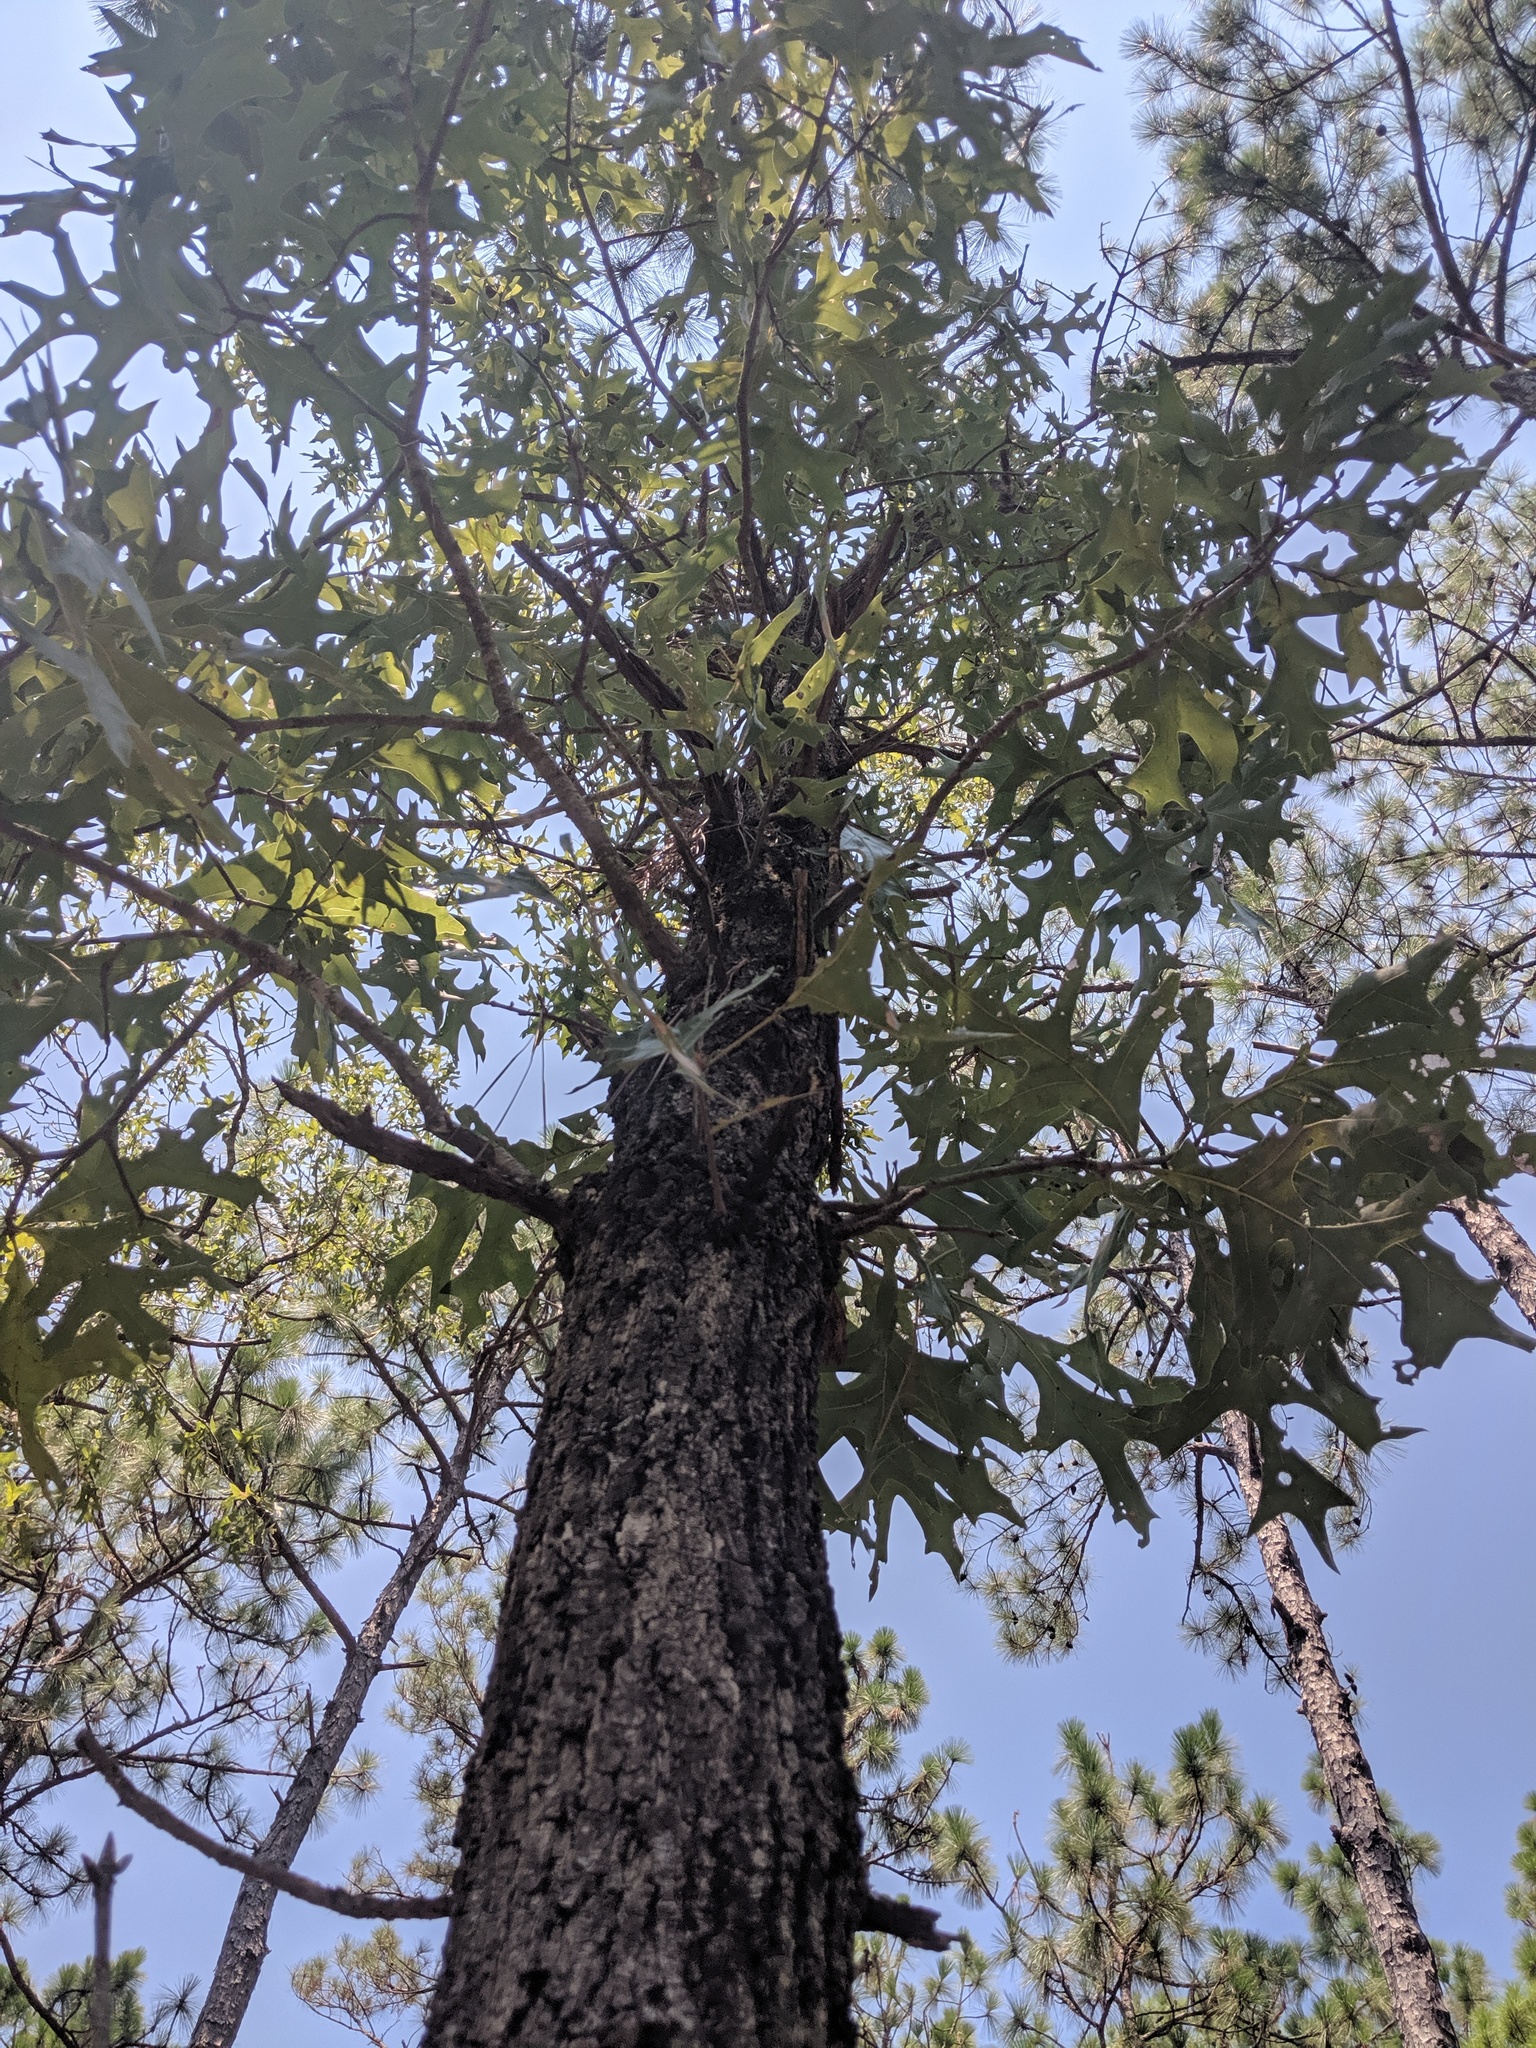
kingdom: Plantae
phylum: Tracheophyta
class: Magnoliopsida
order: Fagales
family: Fagaceae
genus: Quercus
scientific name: Quercus laevis
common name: Turkey oak
